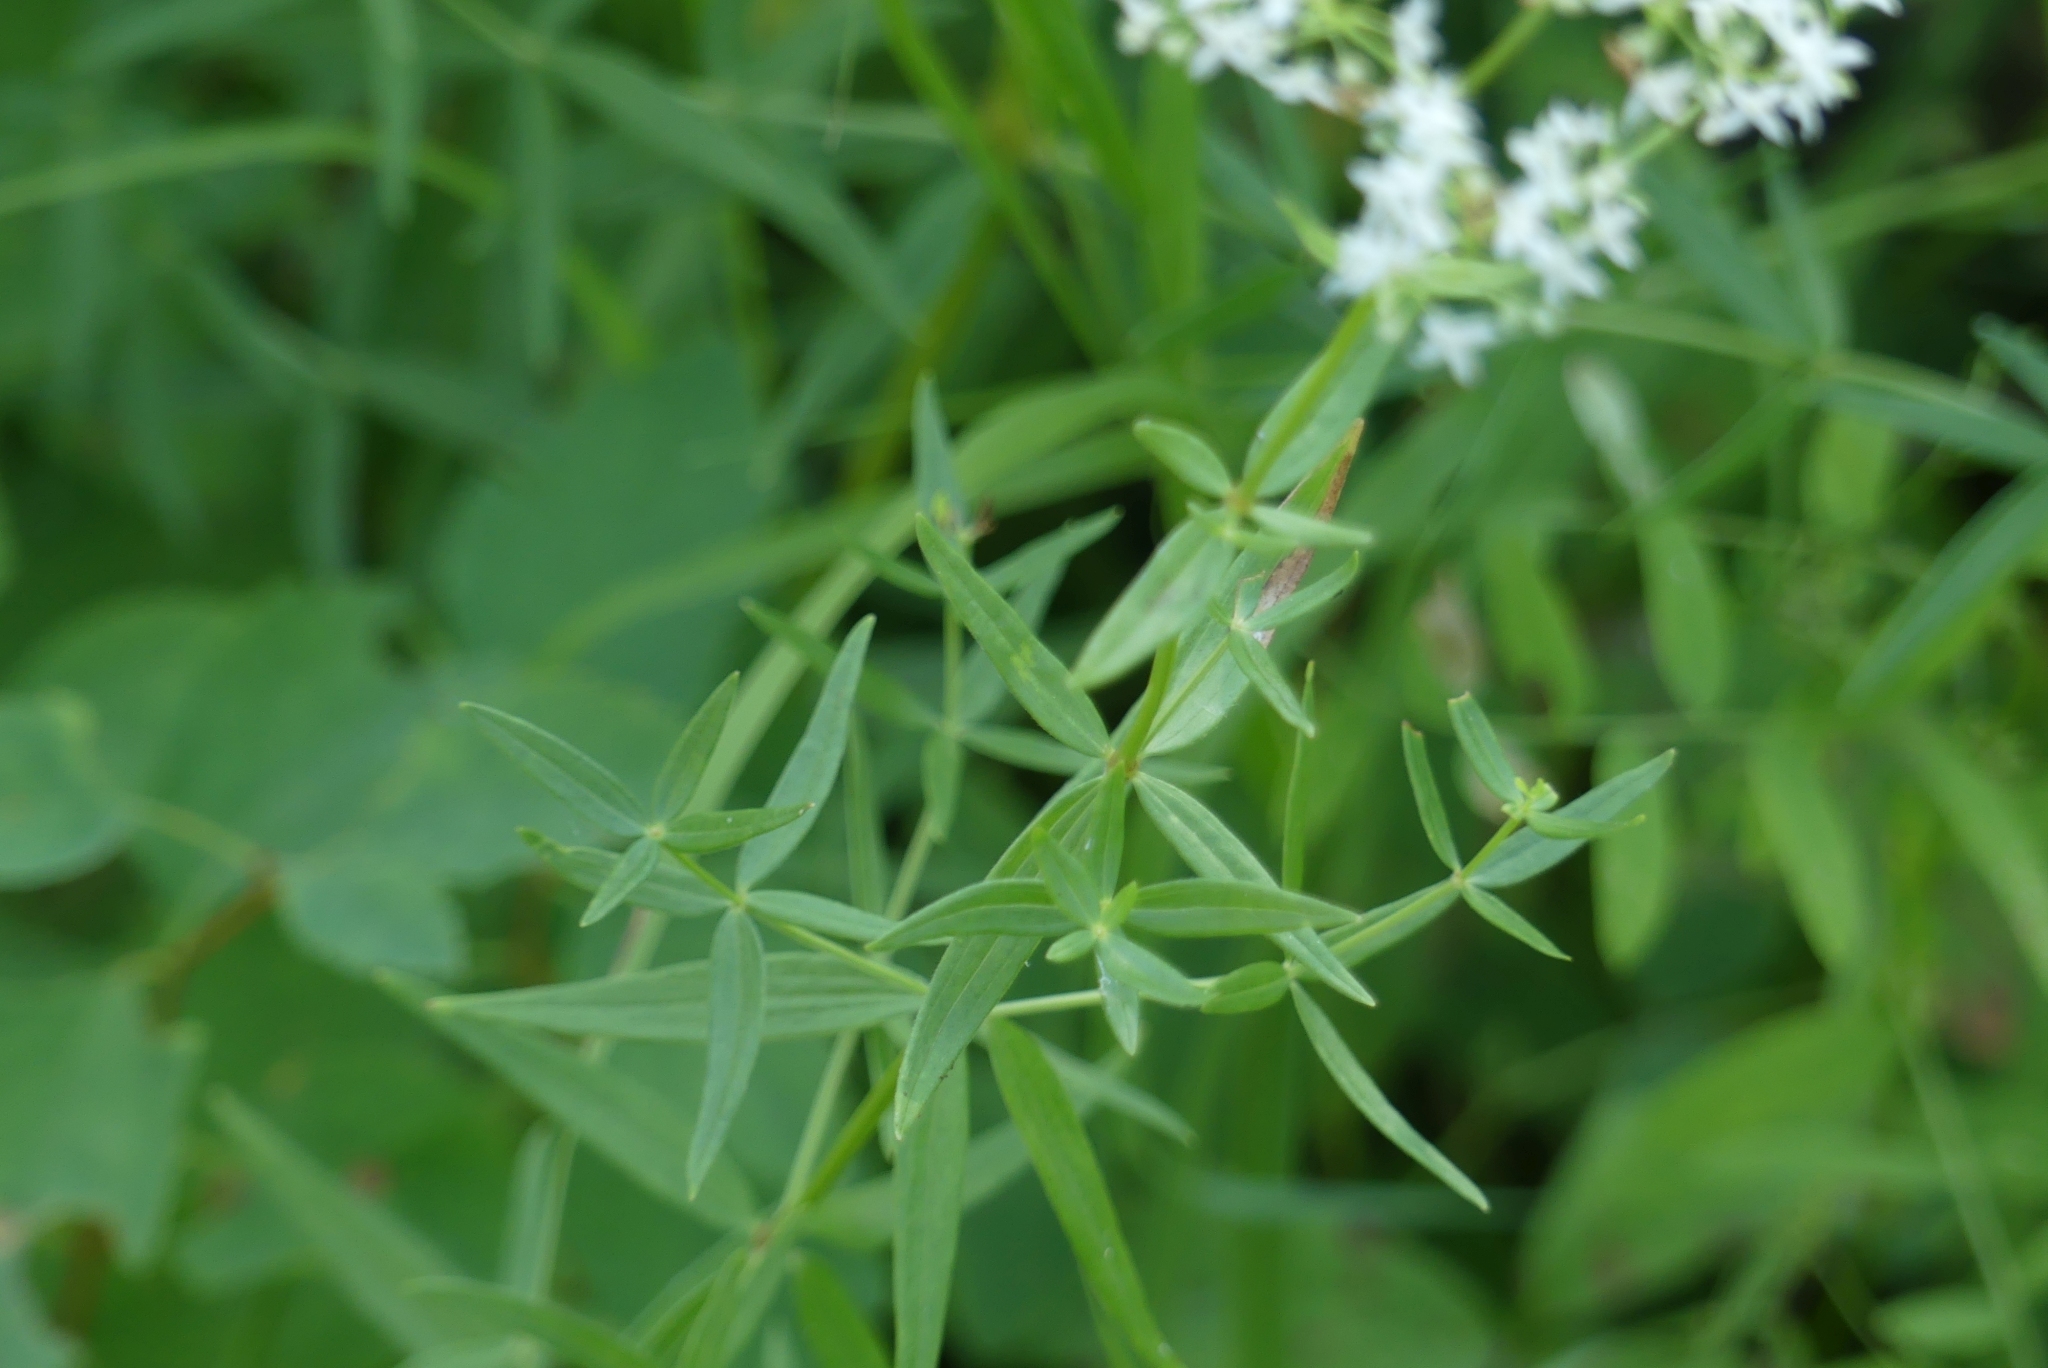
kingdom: Plantae
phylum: Tracheophyta
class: Magnoliopsida
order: Gentianales
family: Rubiaceae
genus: Galium
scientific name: Galium boreale
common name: Northern bedstraw
